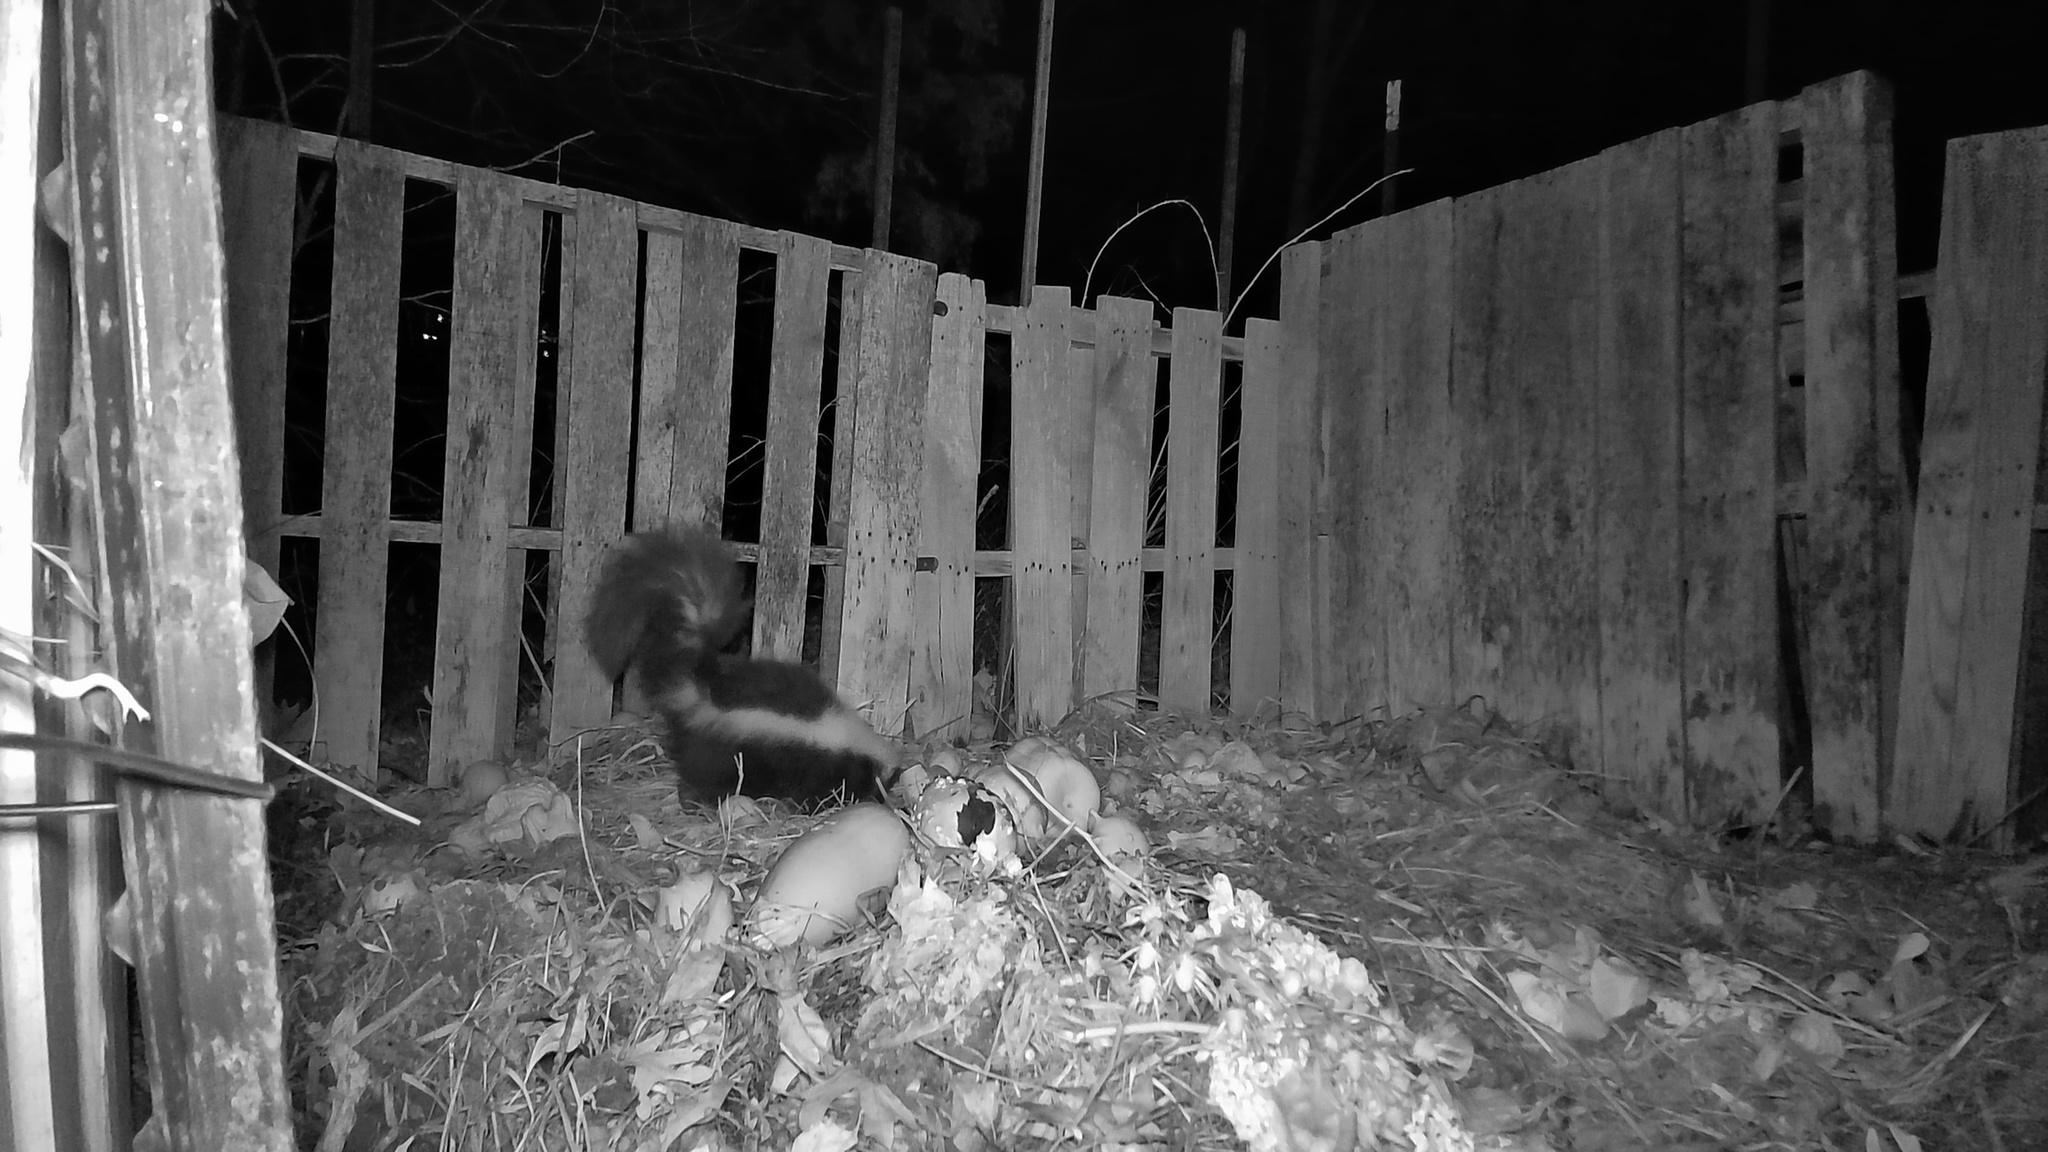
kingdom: Animalia
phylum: Chordata
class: Mammalia
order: Carnivora
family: Mephitidae
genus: Mephitis
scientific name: Mephitis mephitis
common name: Striped skunk
